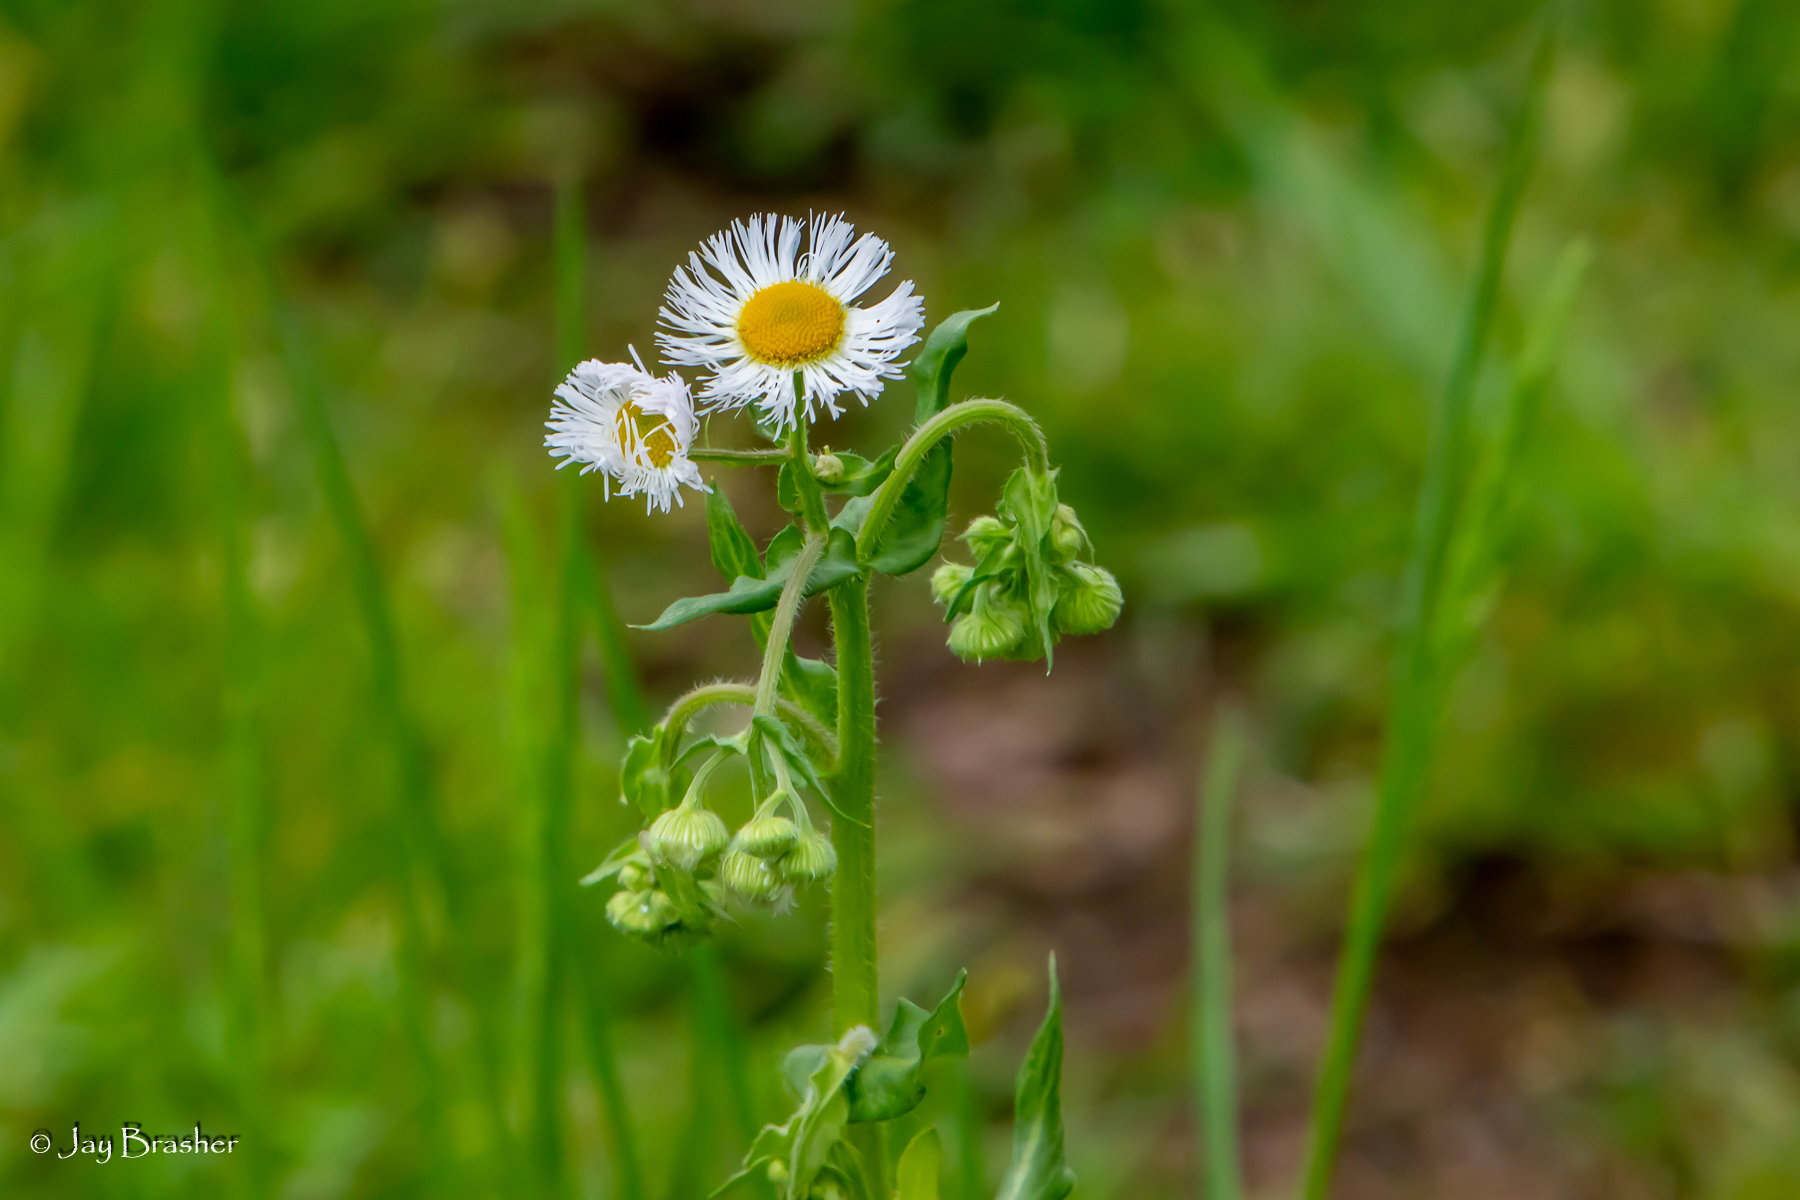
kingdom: Plantae
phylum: Tracheophyta
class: Magnoliopsida
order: Asterales
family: Asteraceae
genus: Erigeron
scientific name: Erigeron philadelphicus
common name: Robin's-plantain
